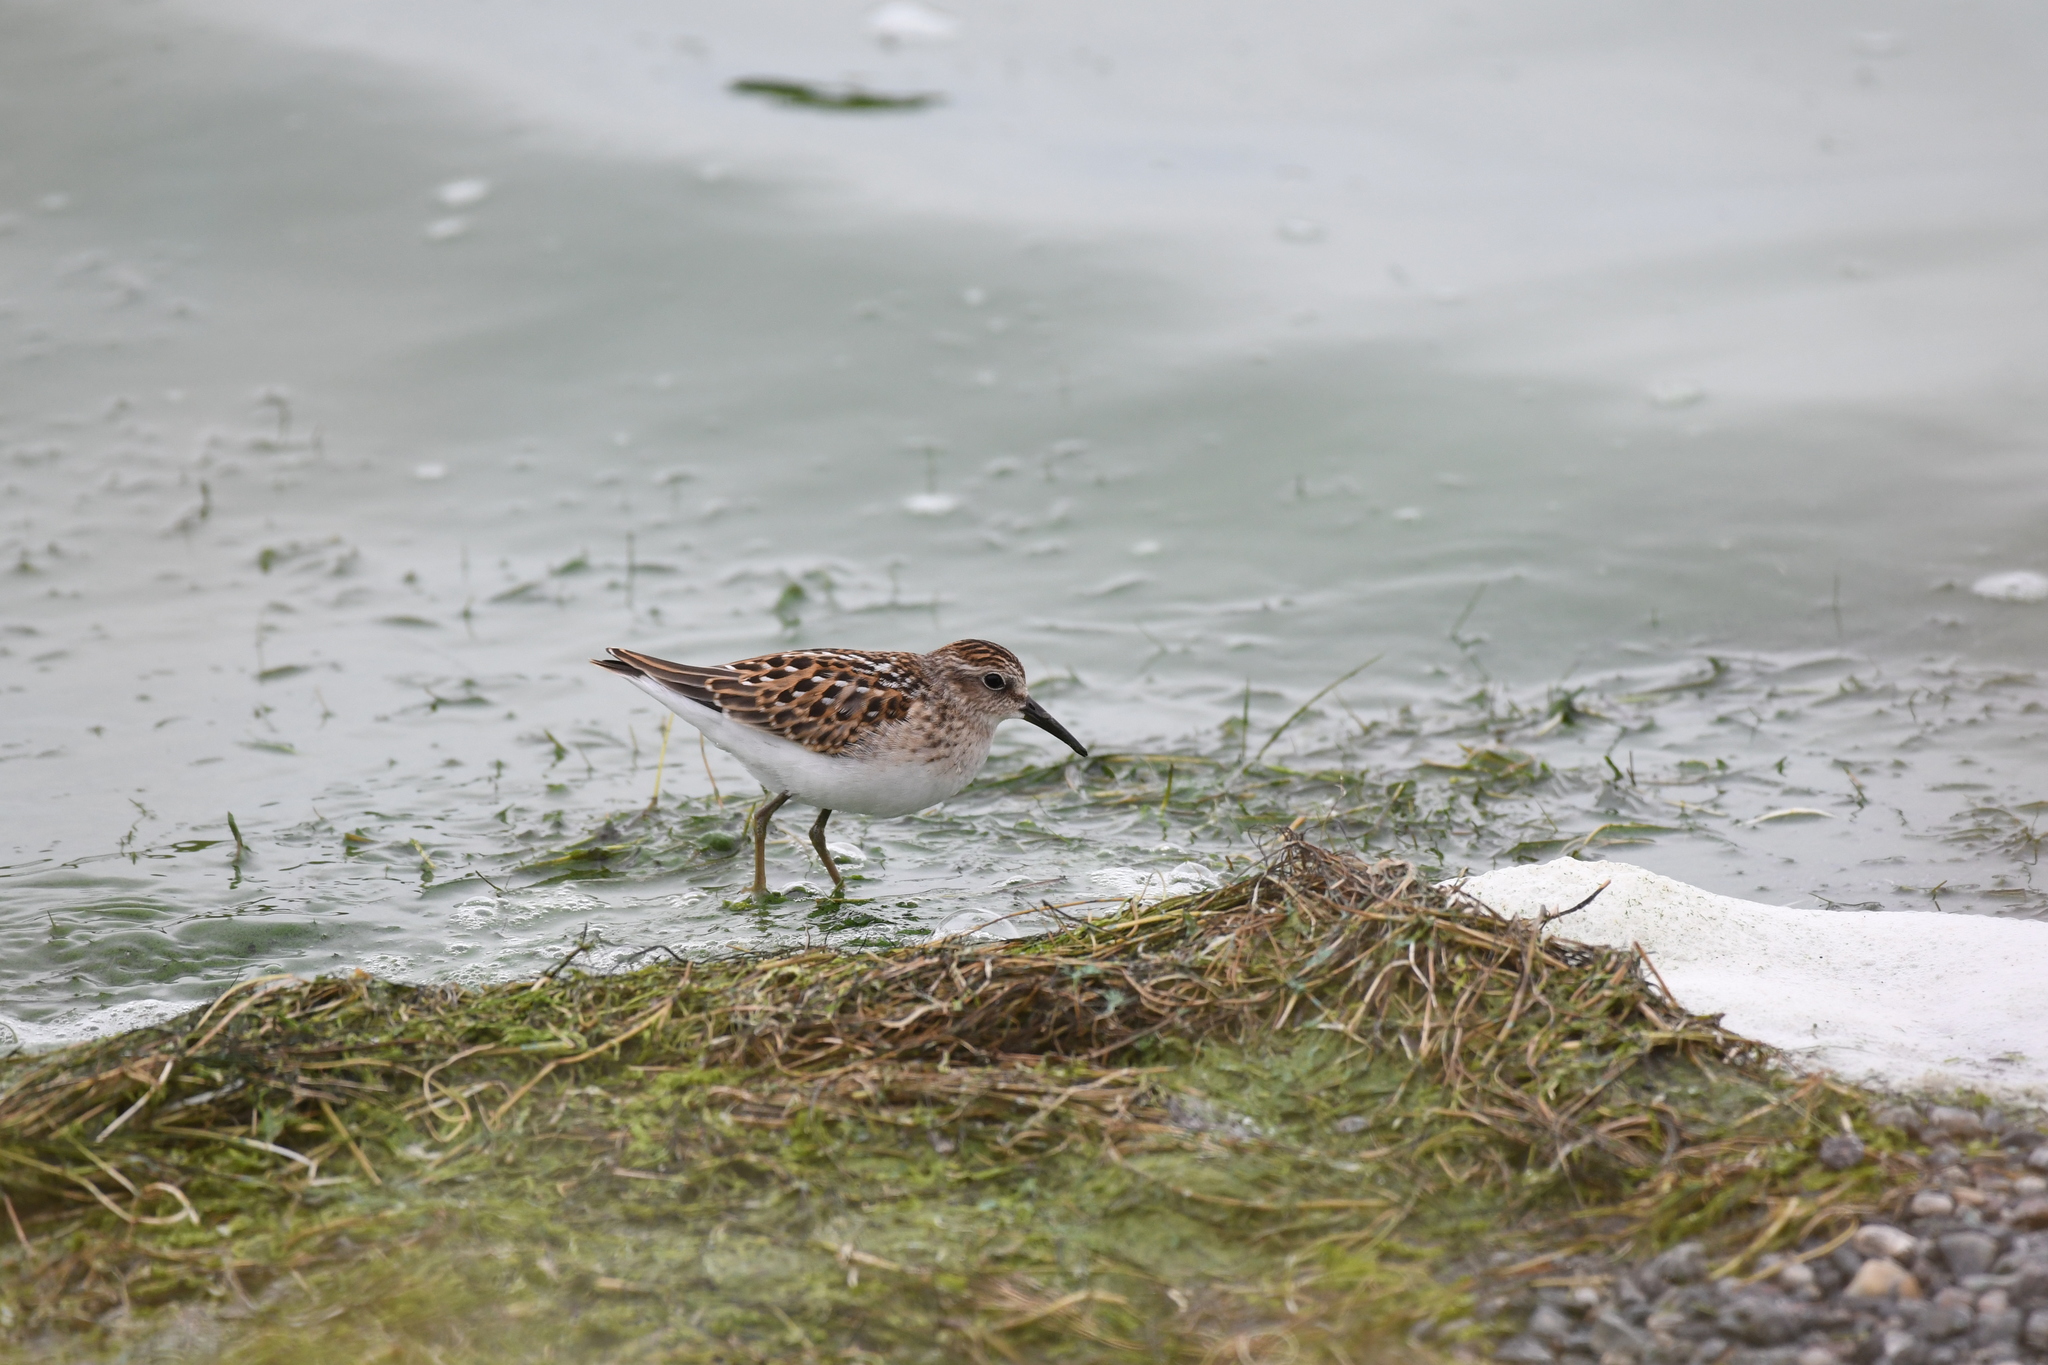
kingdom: Animalia
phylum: Chordata
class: Aves
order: Charadriiformes
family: Scolopacidae
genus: Calidris
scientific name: Calidris minutilla
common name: Least sandpiper
